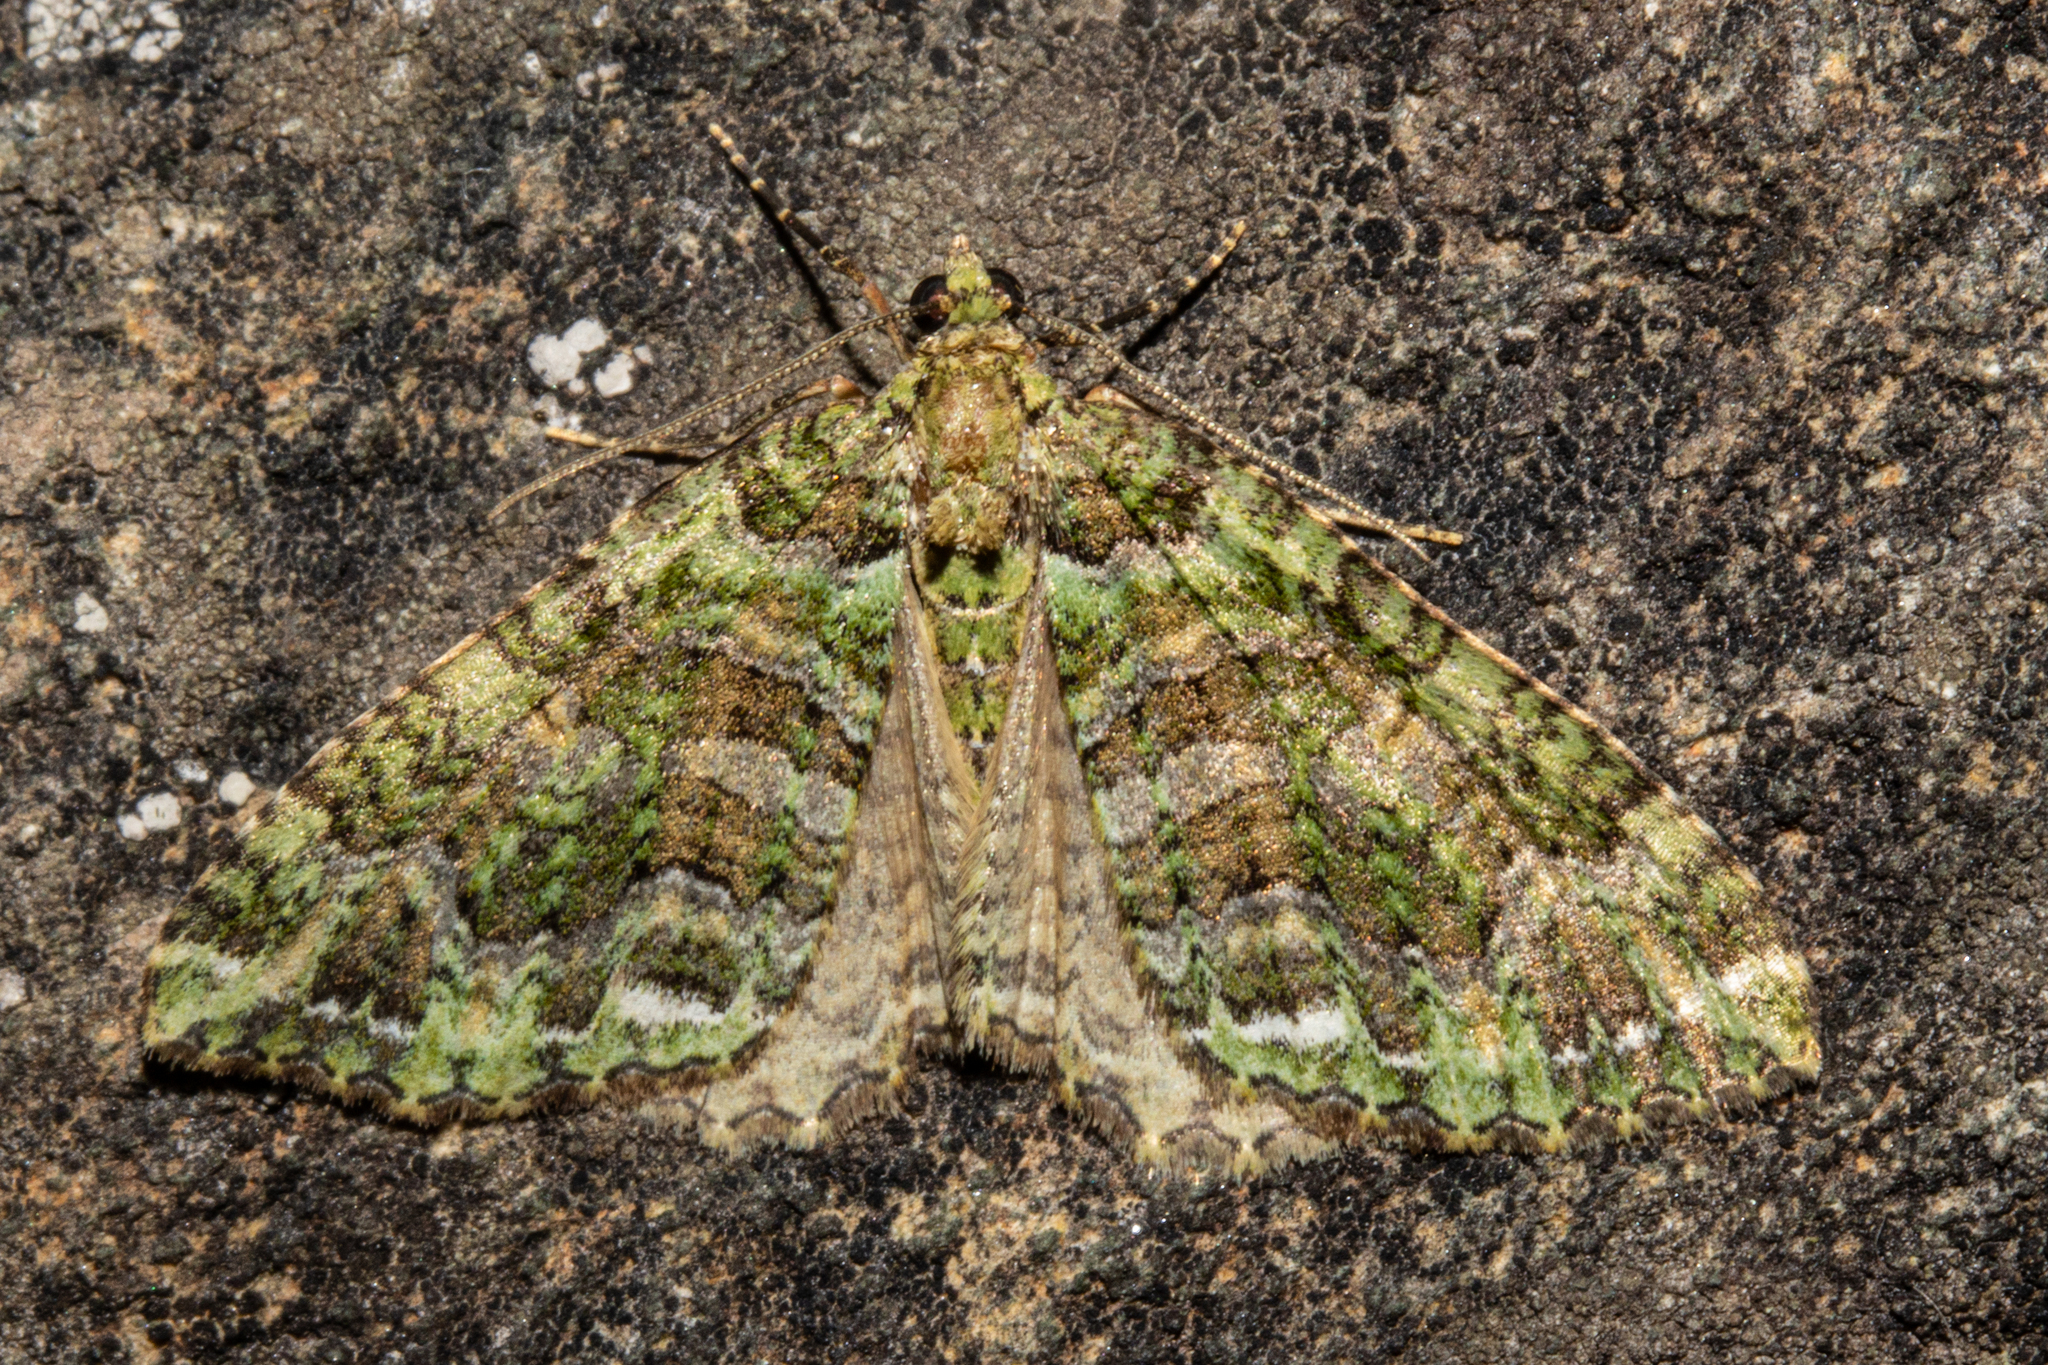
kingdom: Animalia
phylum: Arthropoda
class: Insecta
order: Lepidoptera
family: Geometridae
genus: Austrocidaria
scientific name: Austrocidaria similata
